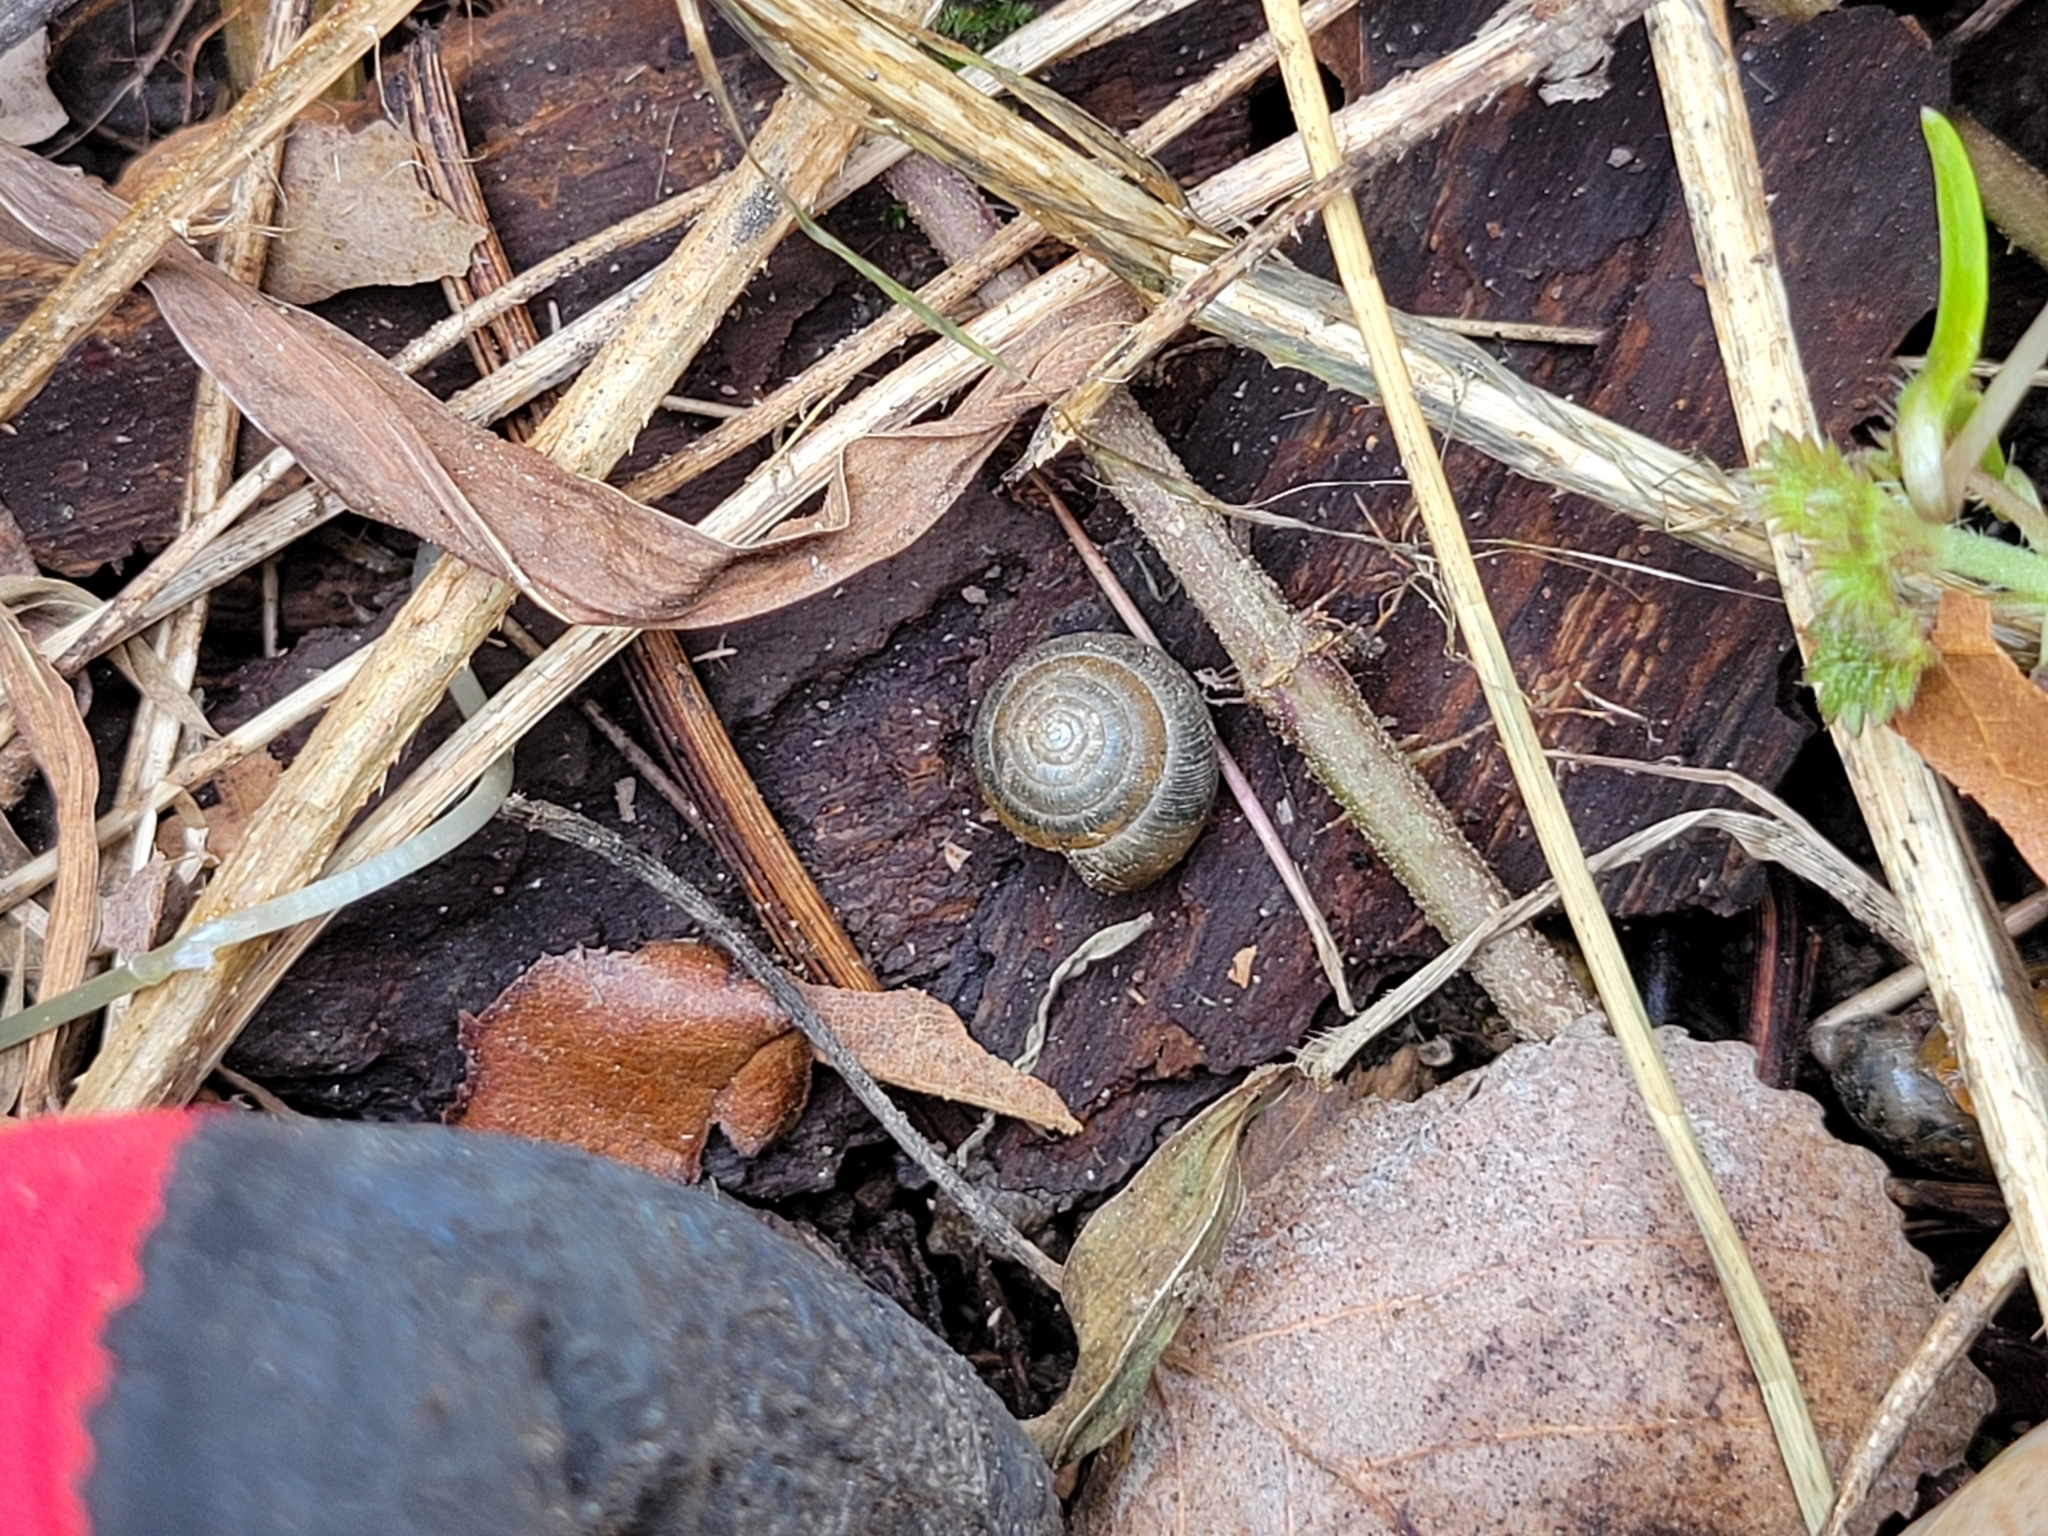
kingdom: Animalia
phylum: Mollusca
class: Gastropoda
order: Stylommatophora
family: Gastrodontidae
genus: Ventridens
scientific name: Ventridens ligera
